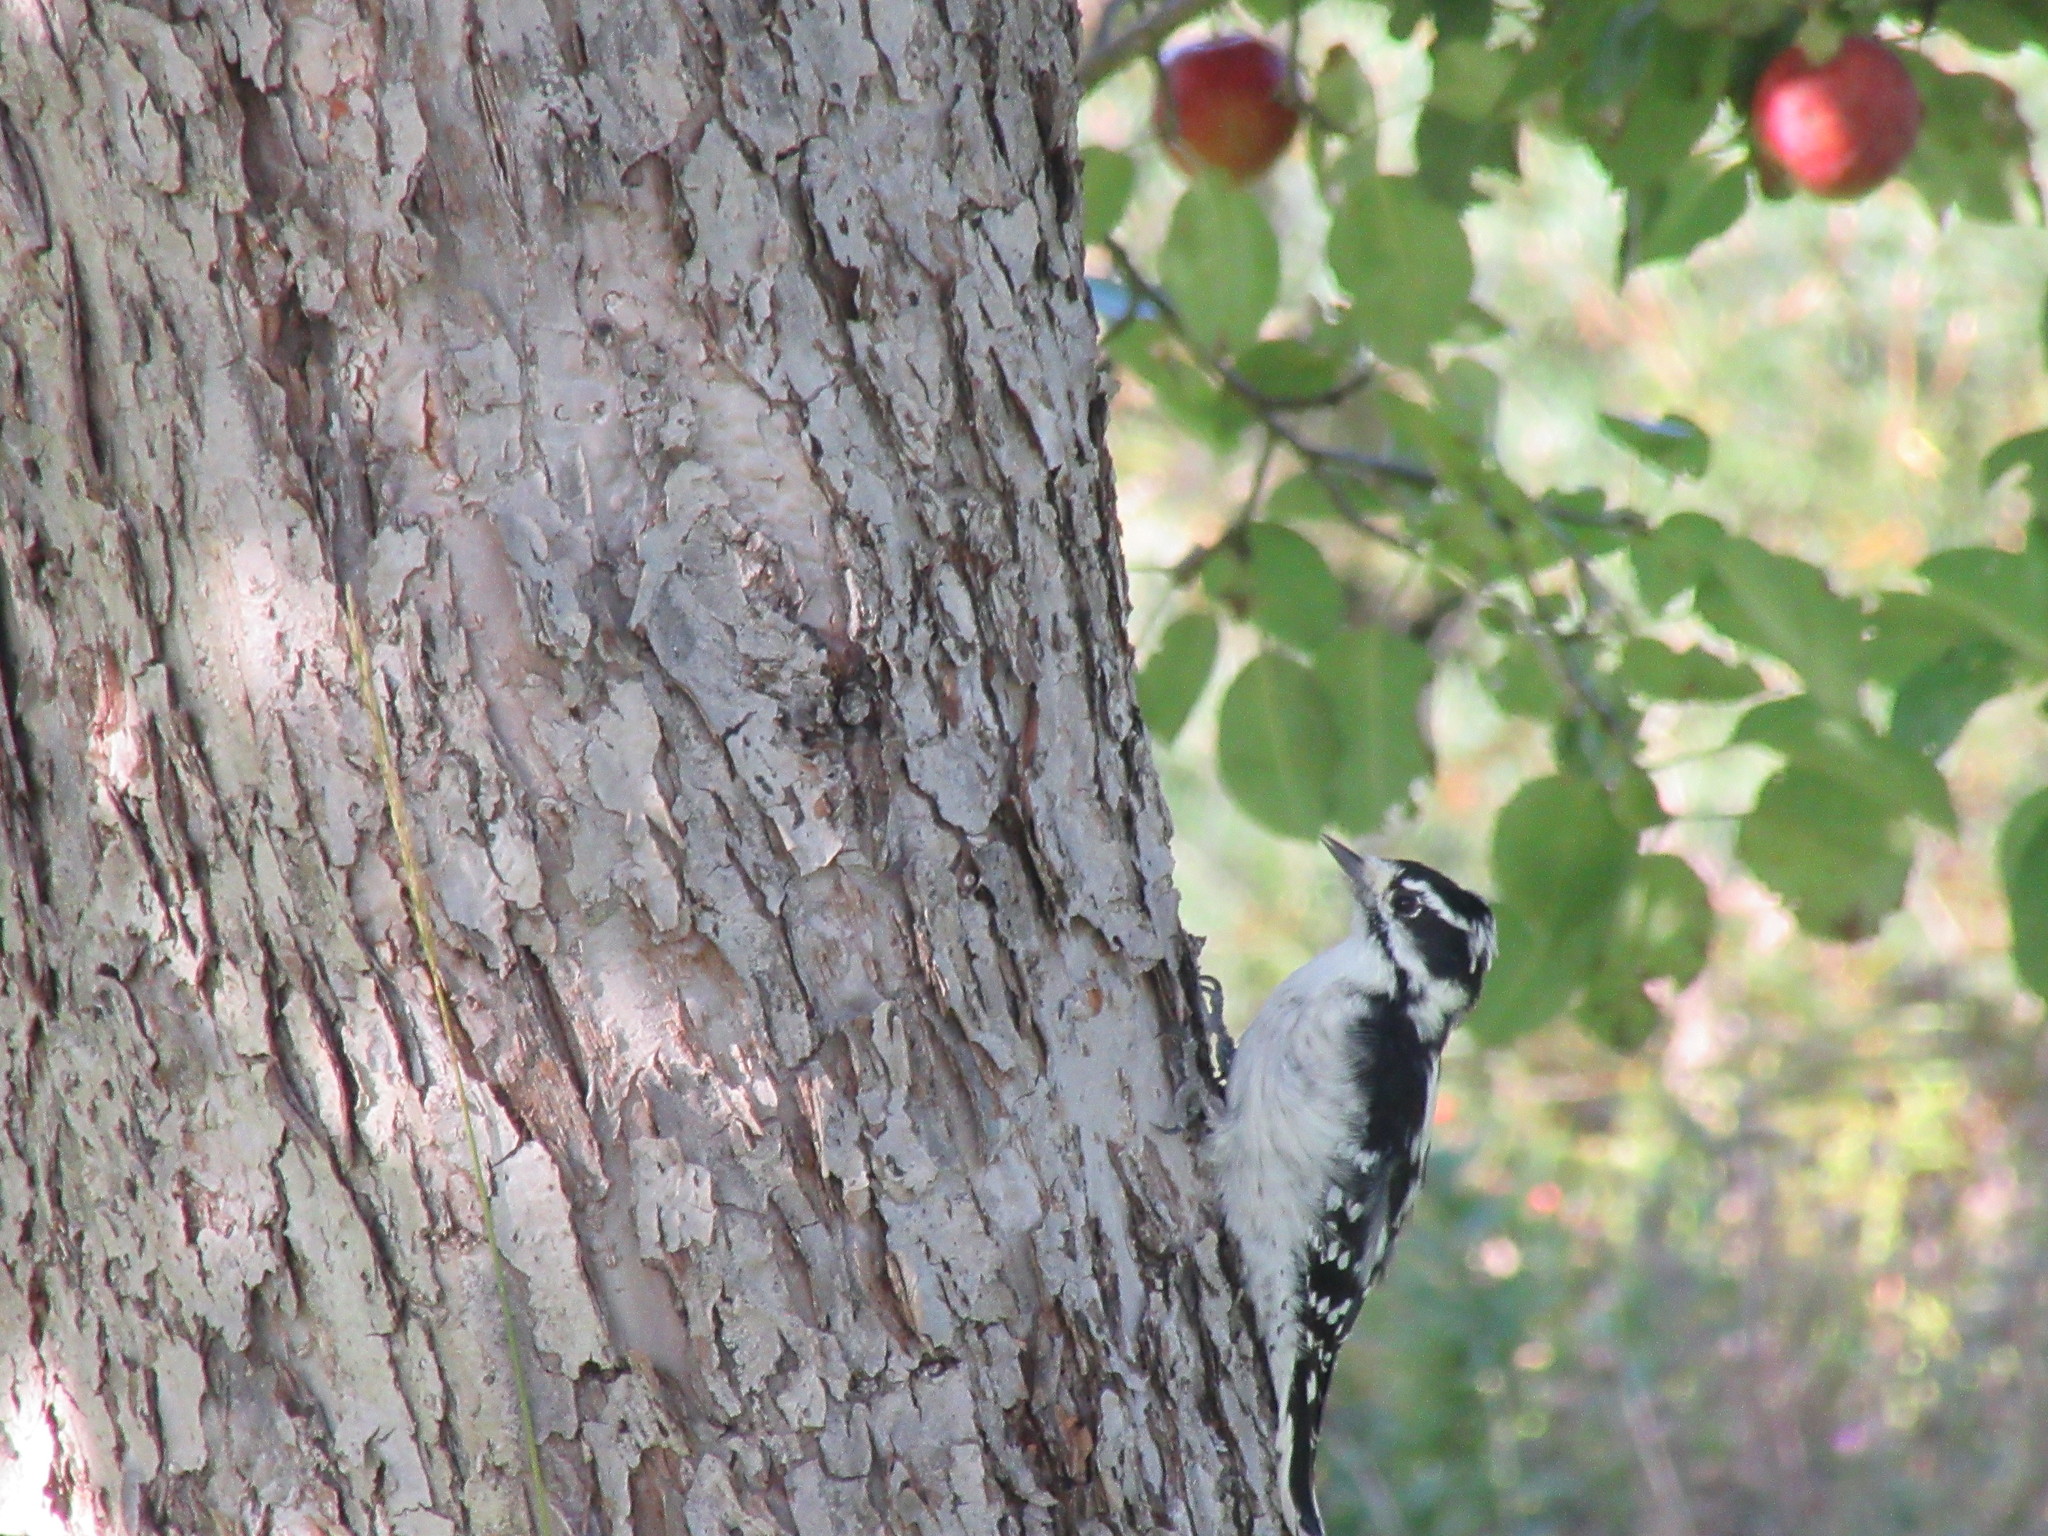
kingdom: Animalia
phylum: Chordata
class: Aves
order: Piciformes
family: Picidae
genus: Dryobates
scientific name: Dryobates pubescens
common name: Downy woodpecker
